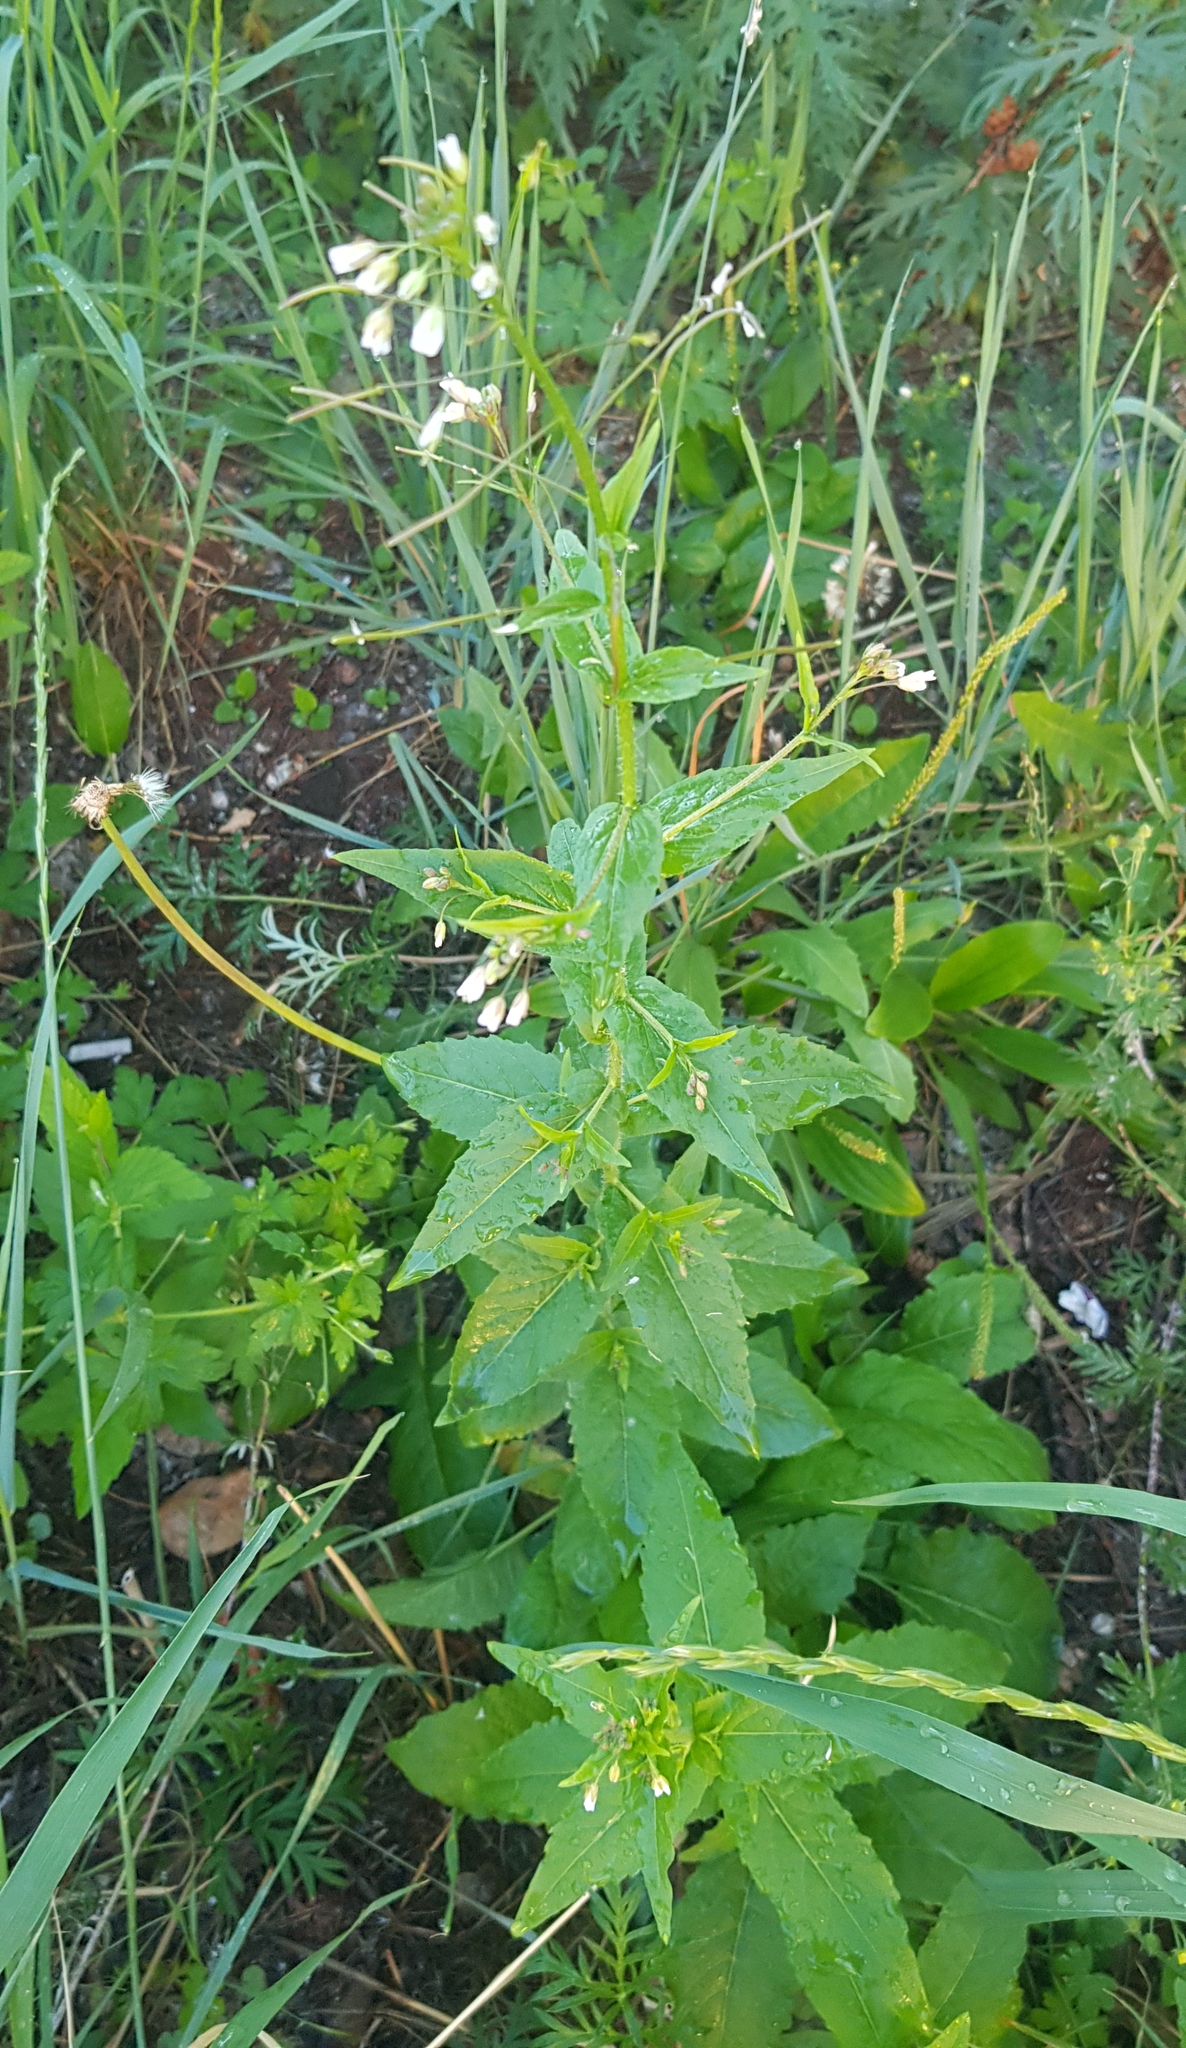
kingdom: Plantae
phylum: Tracheophyta
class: Magnoliopsida
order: Brassicales
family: Brassicaceae
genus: Catolobus
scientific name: Catolobus pendulus
